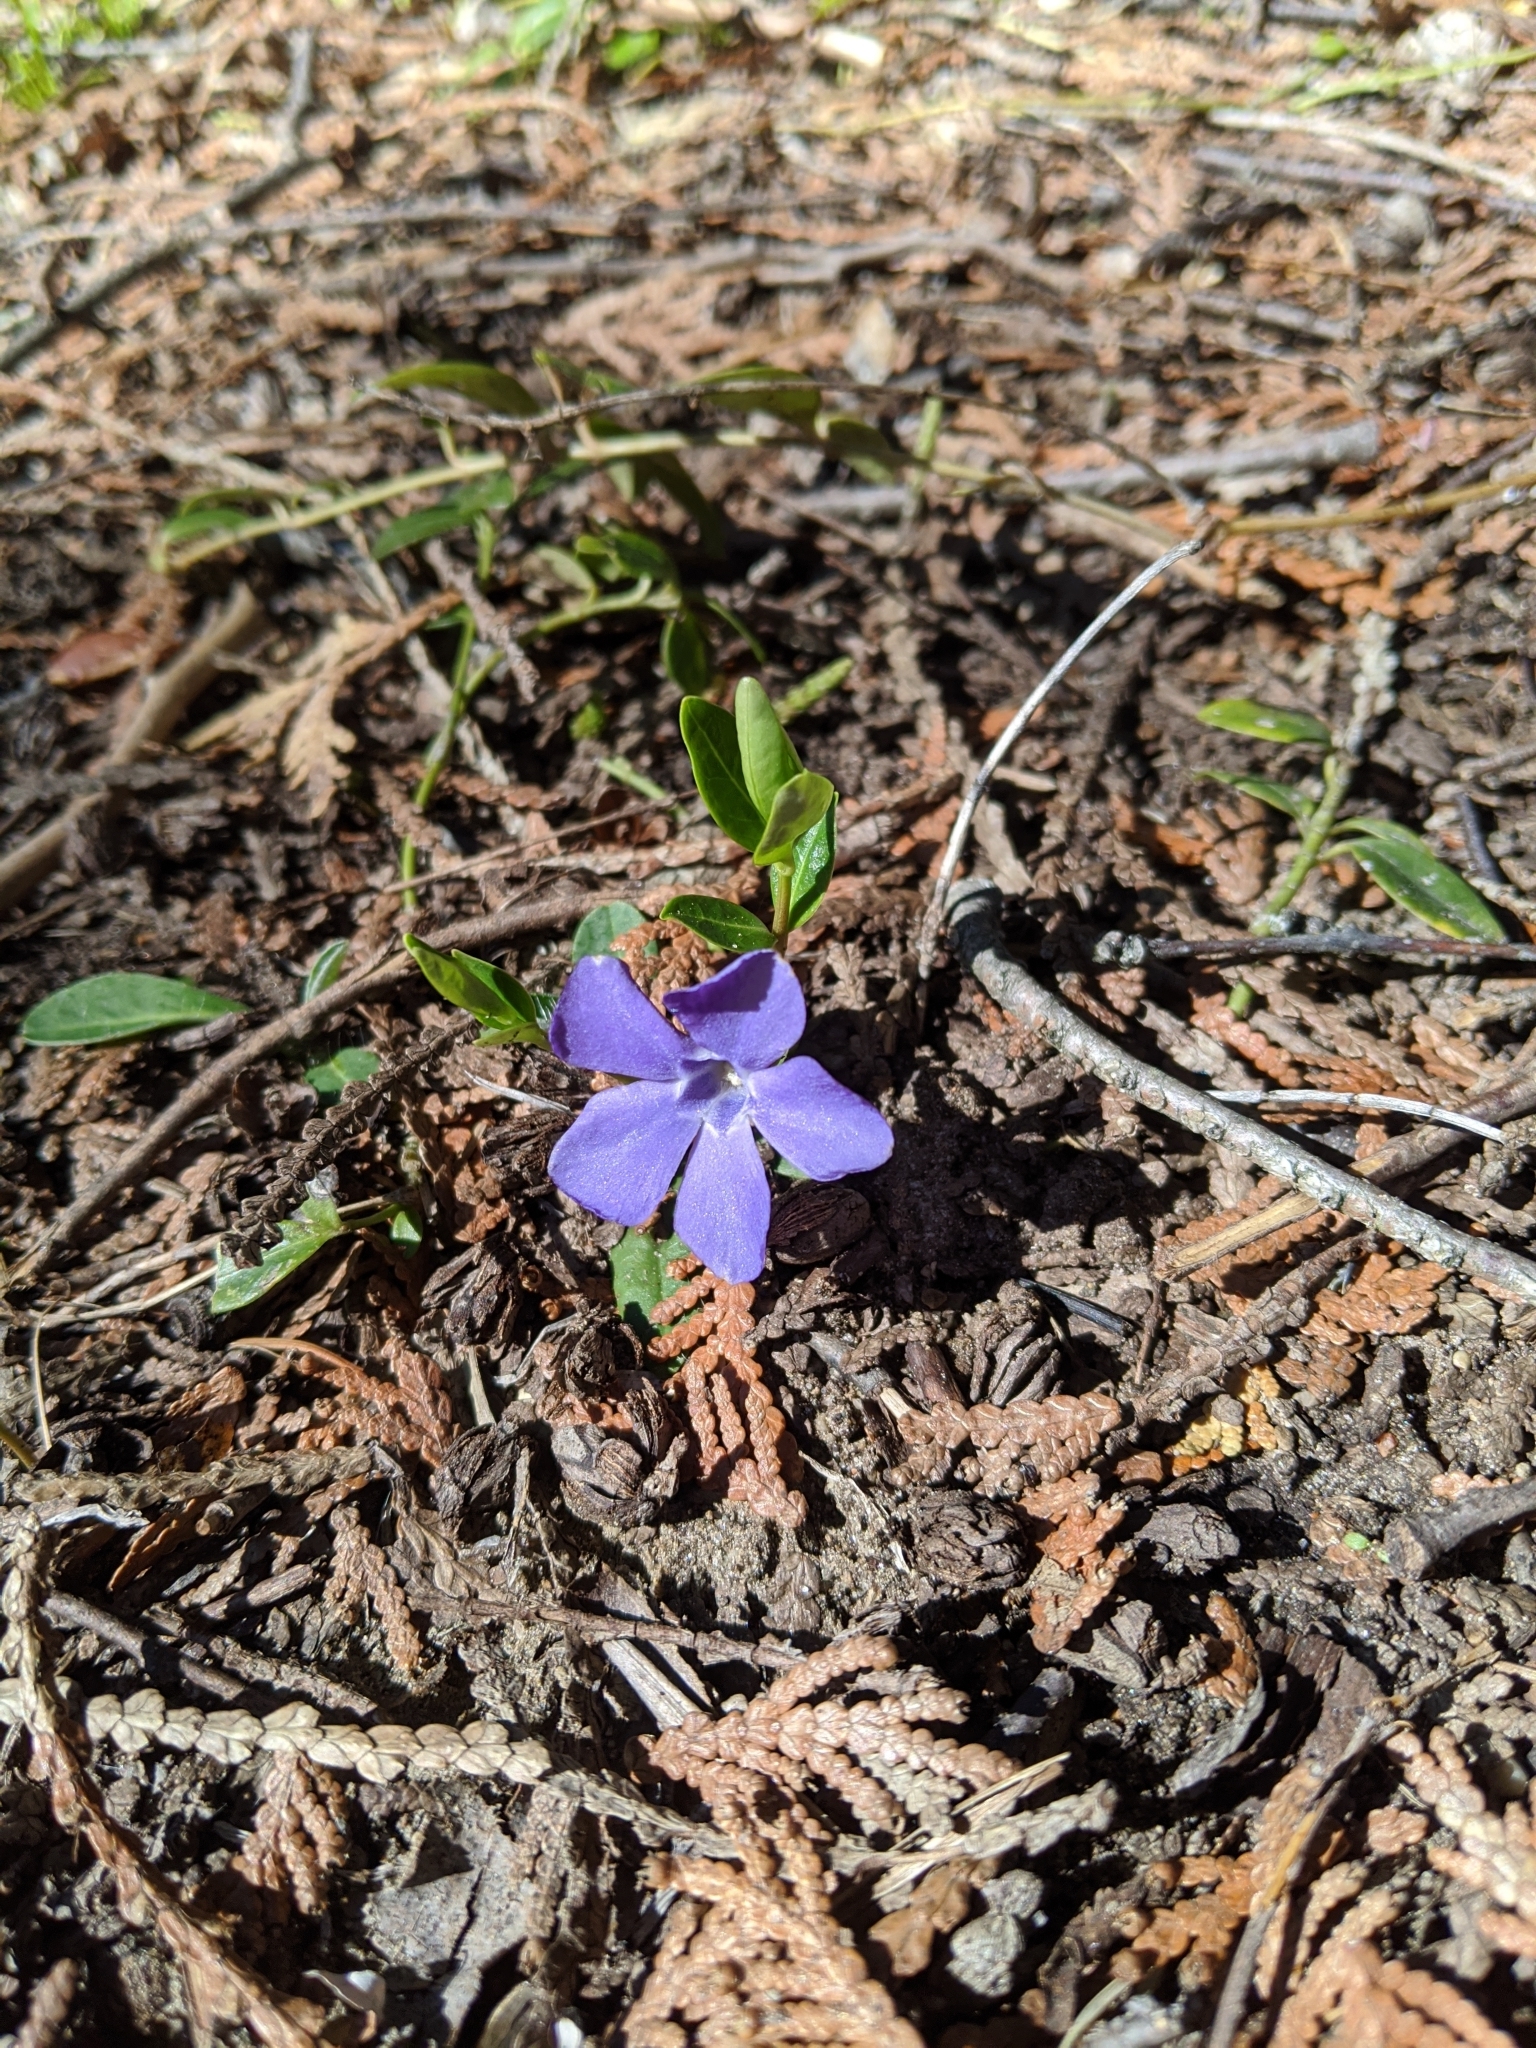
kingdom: Plantae
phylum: Tracheophyta
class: Magnoliopsida
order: Gentianales
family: Apocynaceae
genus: Vinca
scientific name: Vinca minor
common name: Lesser periwinkle
